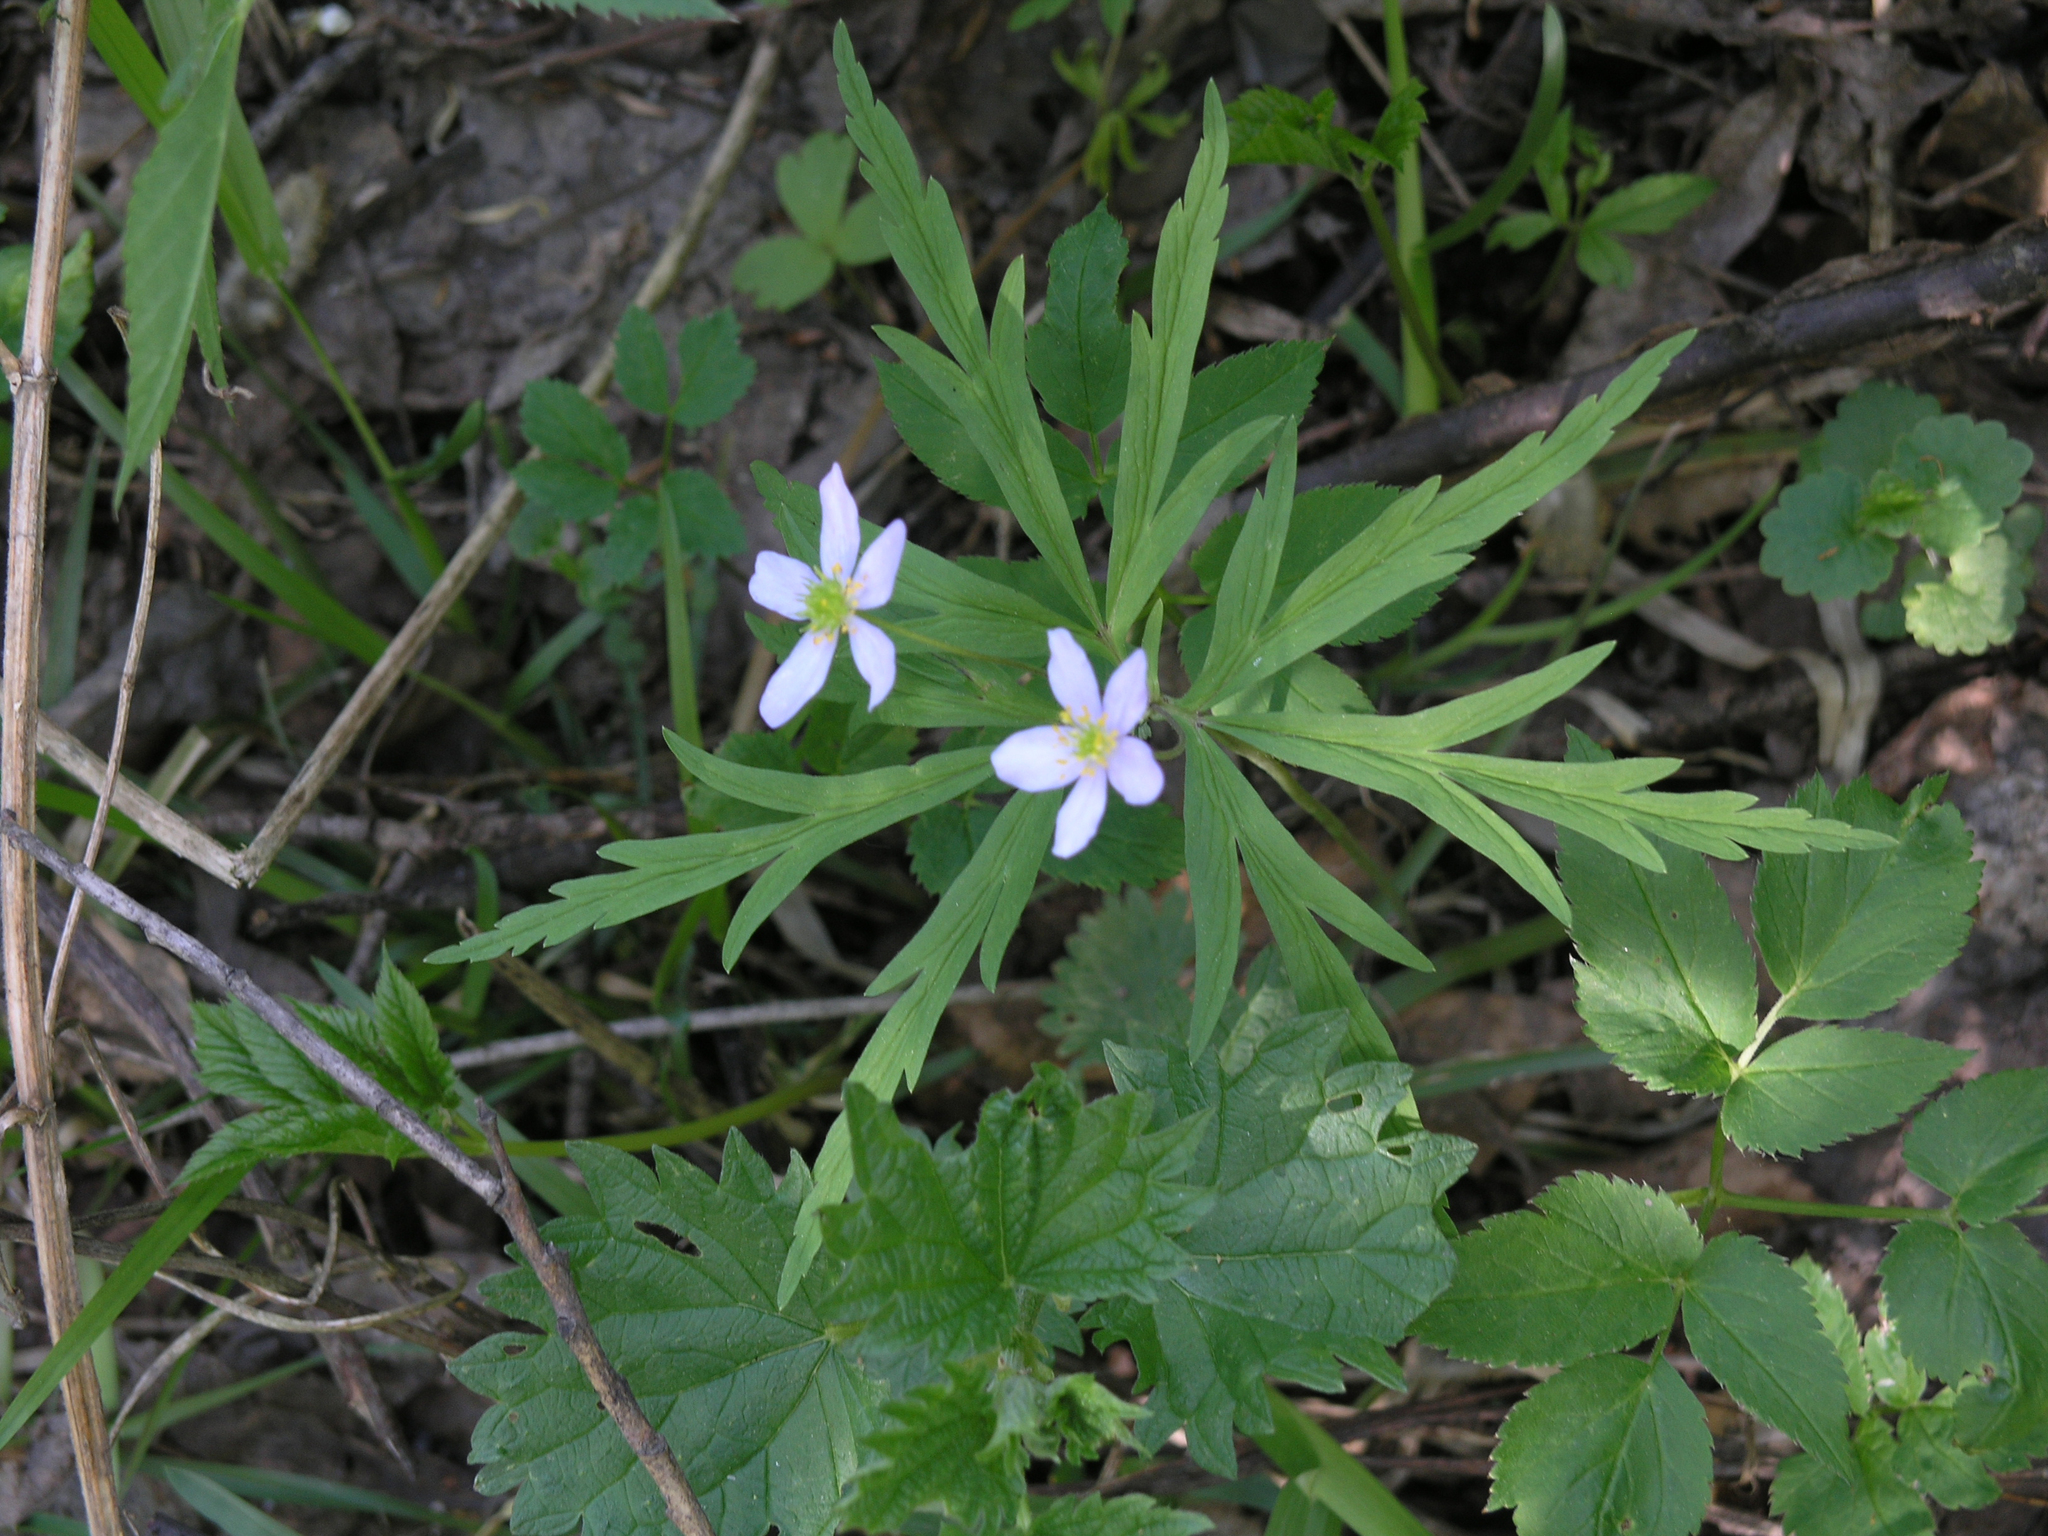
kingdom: Plantae
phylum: Tracheophyta
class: Magnoliopsida
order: Ranunculales
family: Ranunculaceae
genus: Anemone
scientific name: Anemone caerulea
